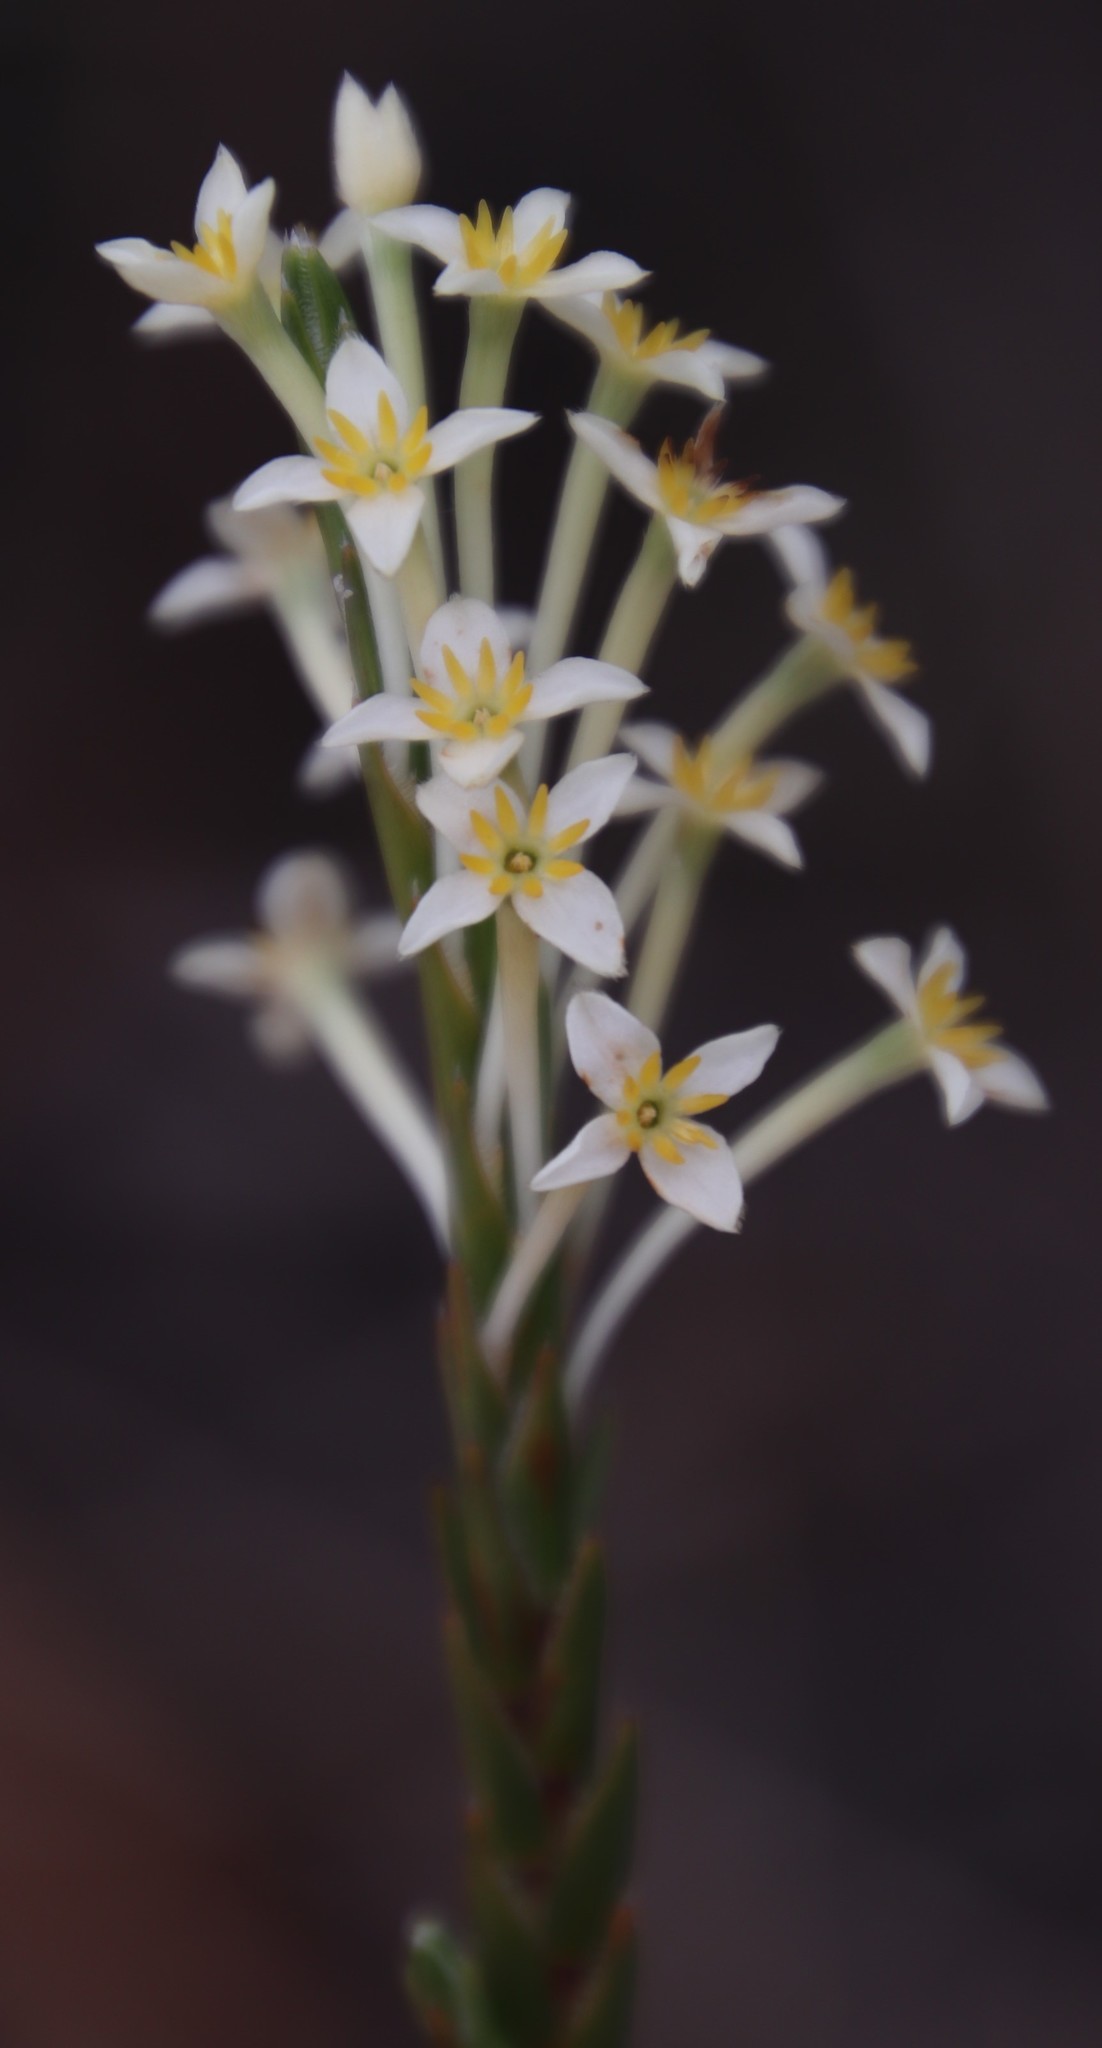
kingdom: Plantae
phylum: Tracheophyta
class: Magnoliopsida
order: Malvales
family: Thymelaeaceae
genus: Struthiola
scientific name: Struthiola ciliata
